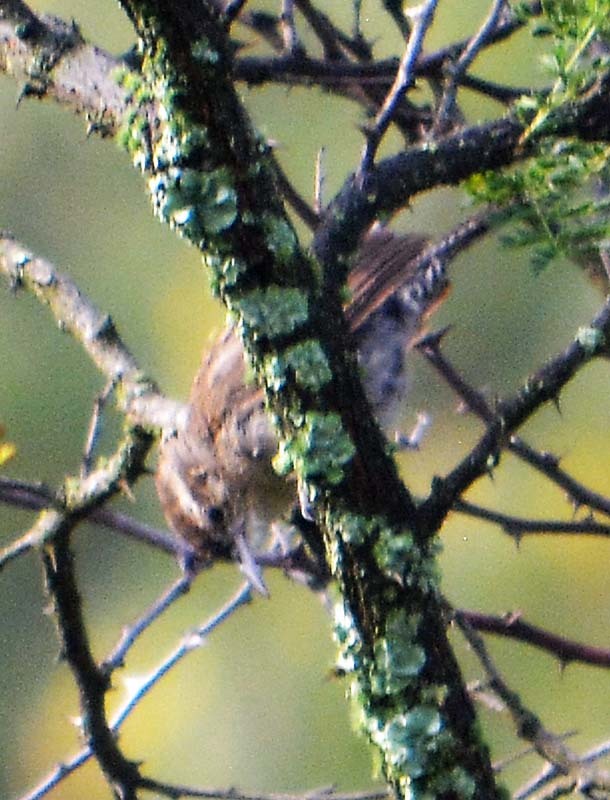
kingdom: Animalia
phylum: Chordata
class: Aves
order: Passeriformes
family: Troglodytidae
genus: Thryomanes
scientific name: Thryomanes bewickii
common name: Bewick's wren
